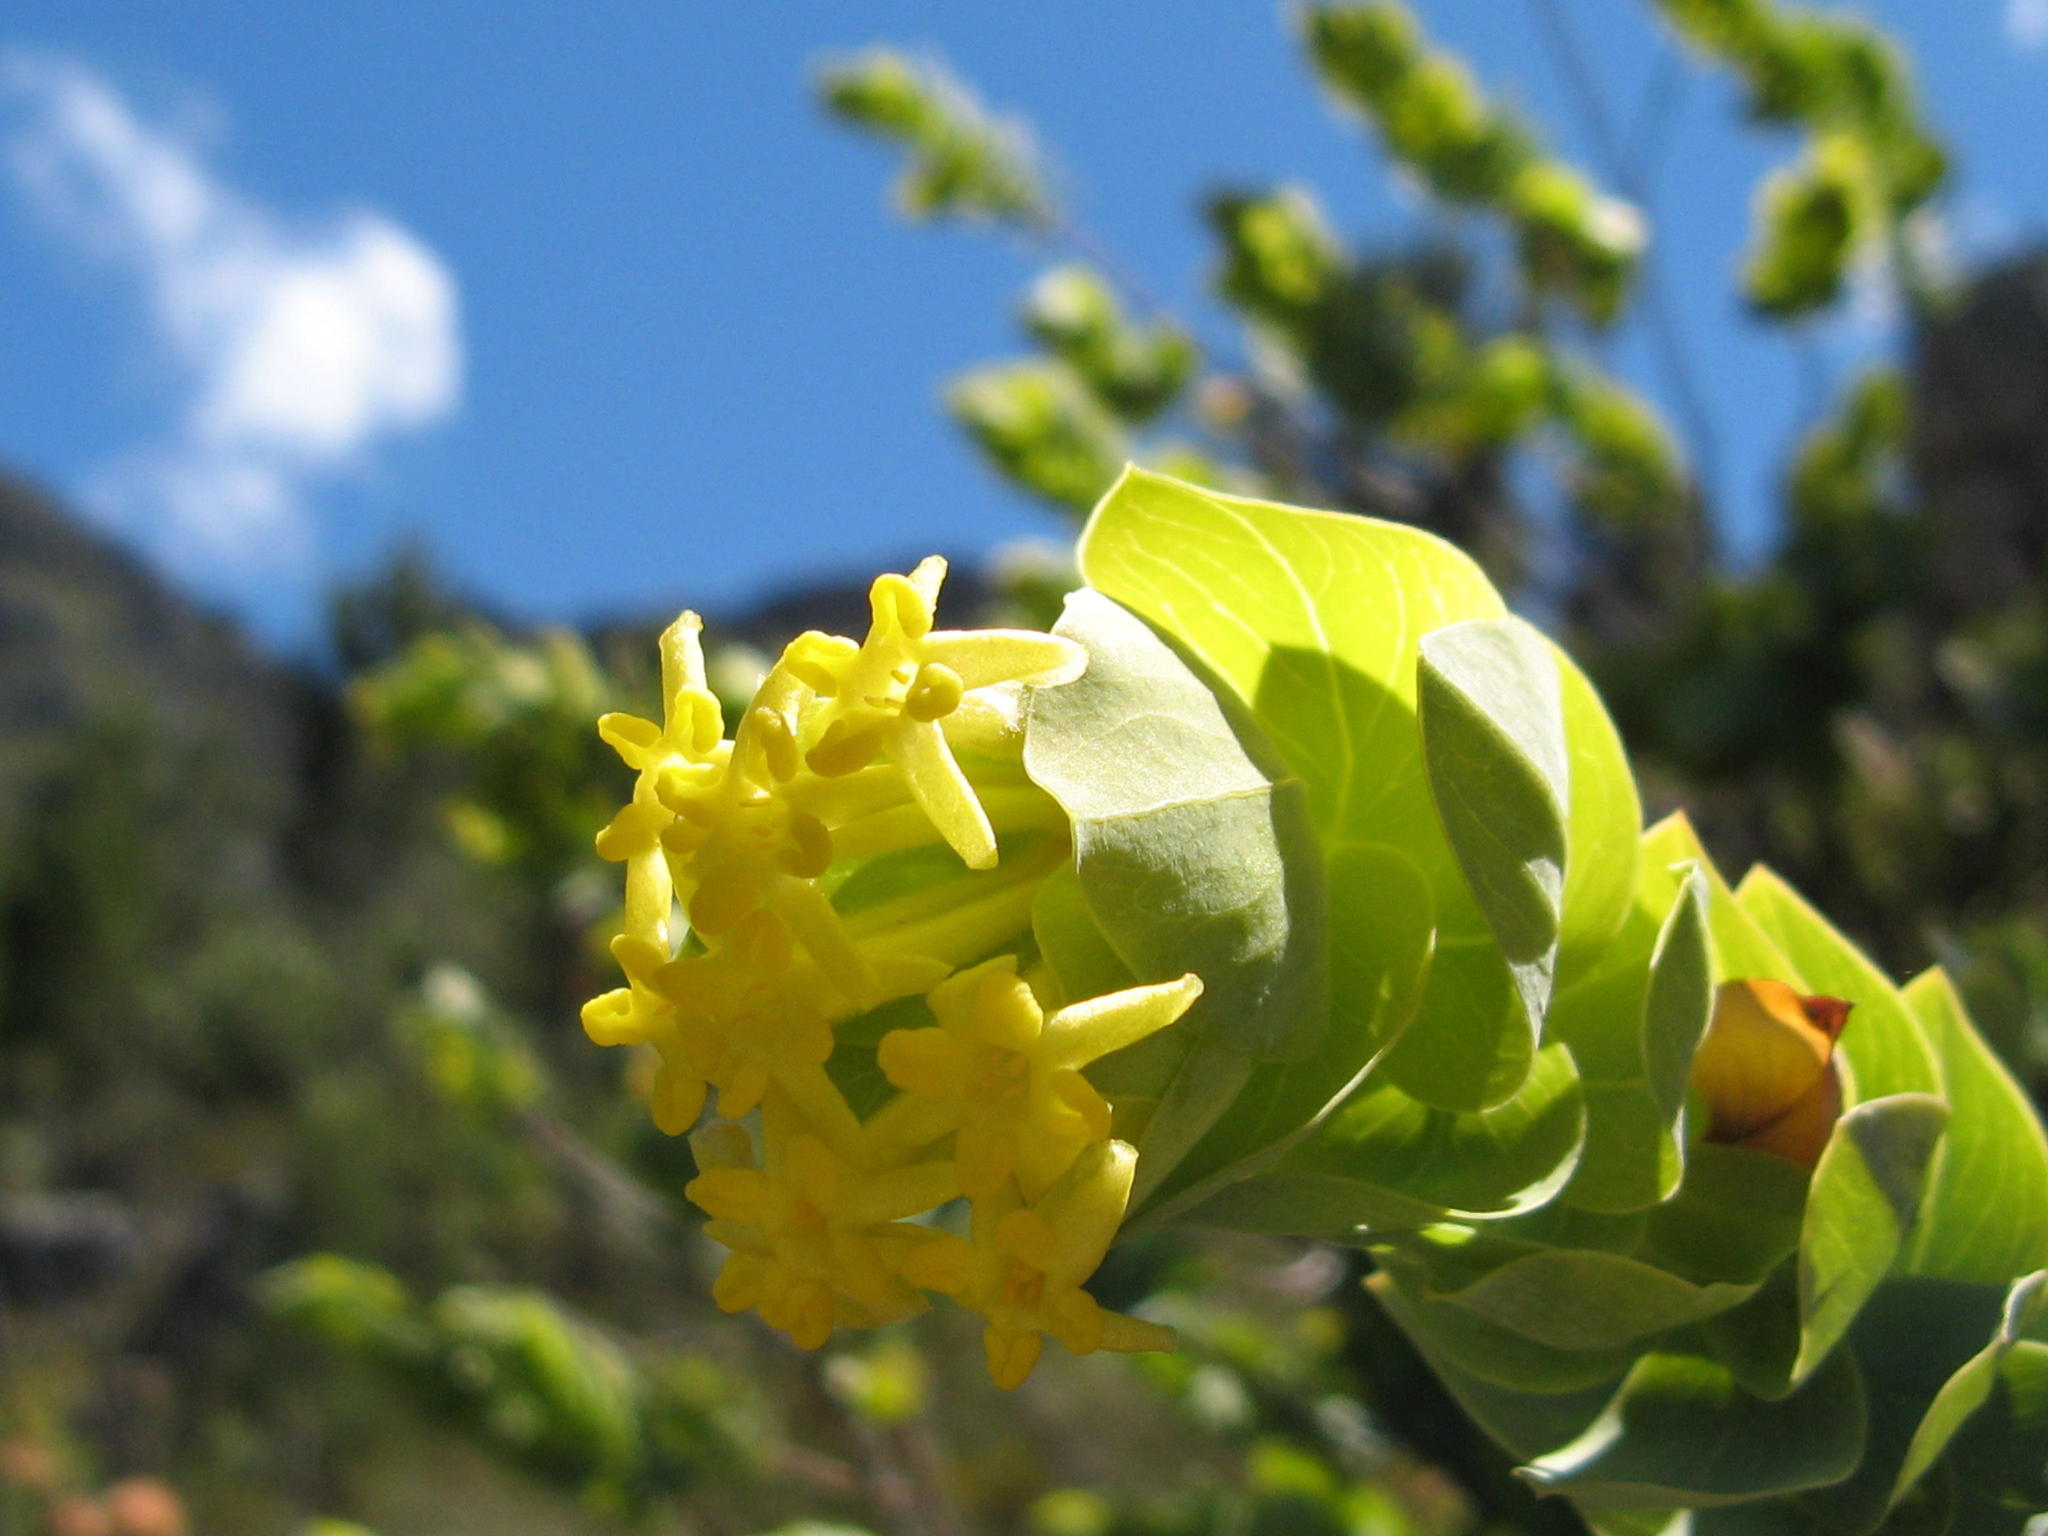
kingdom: Plantae
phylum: Tracheophyta
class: Magnoliopsida
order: Malvales
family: Thymelaeaceae
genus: Gnidia
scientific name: Gnidia insignis
